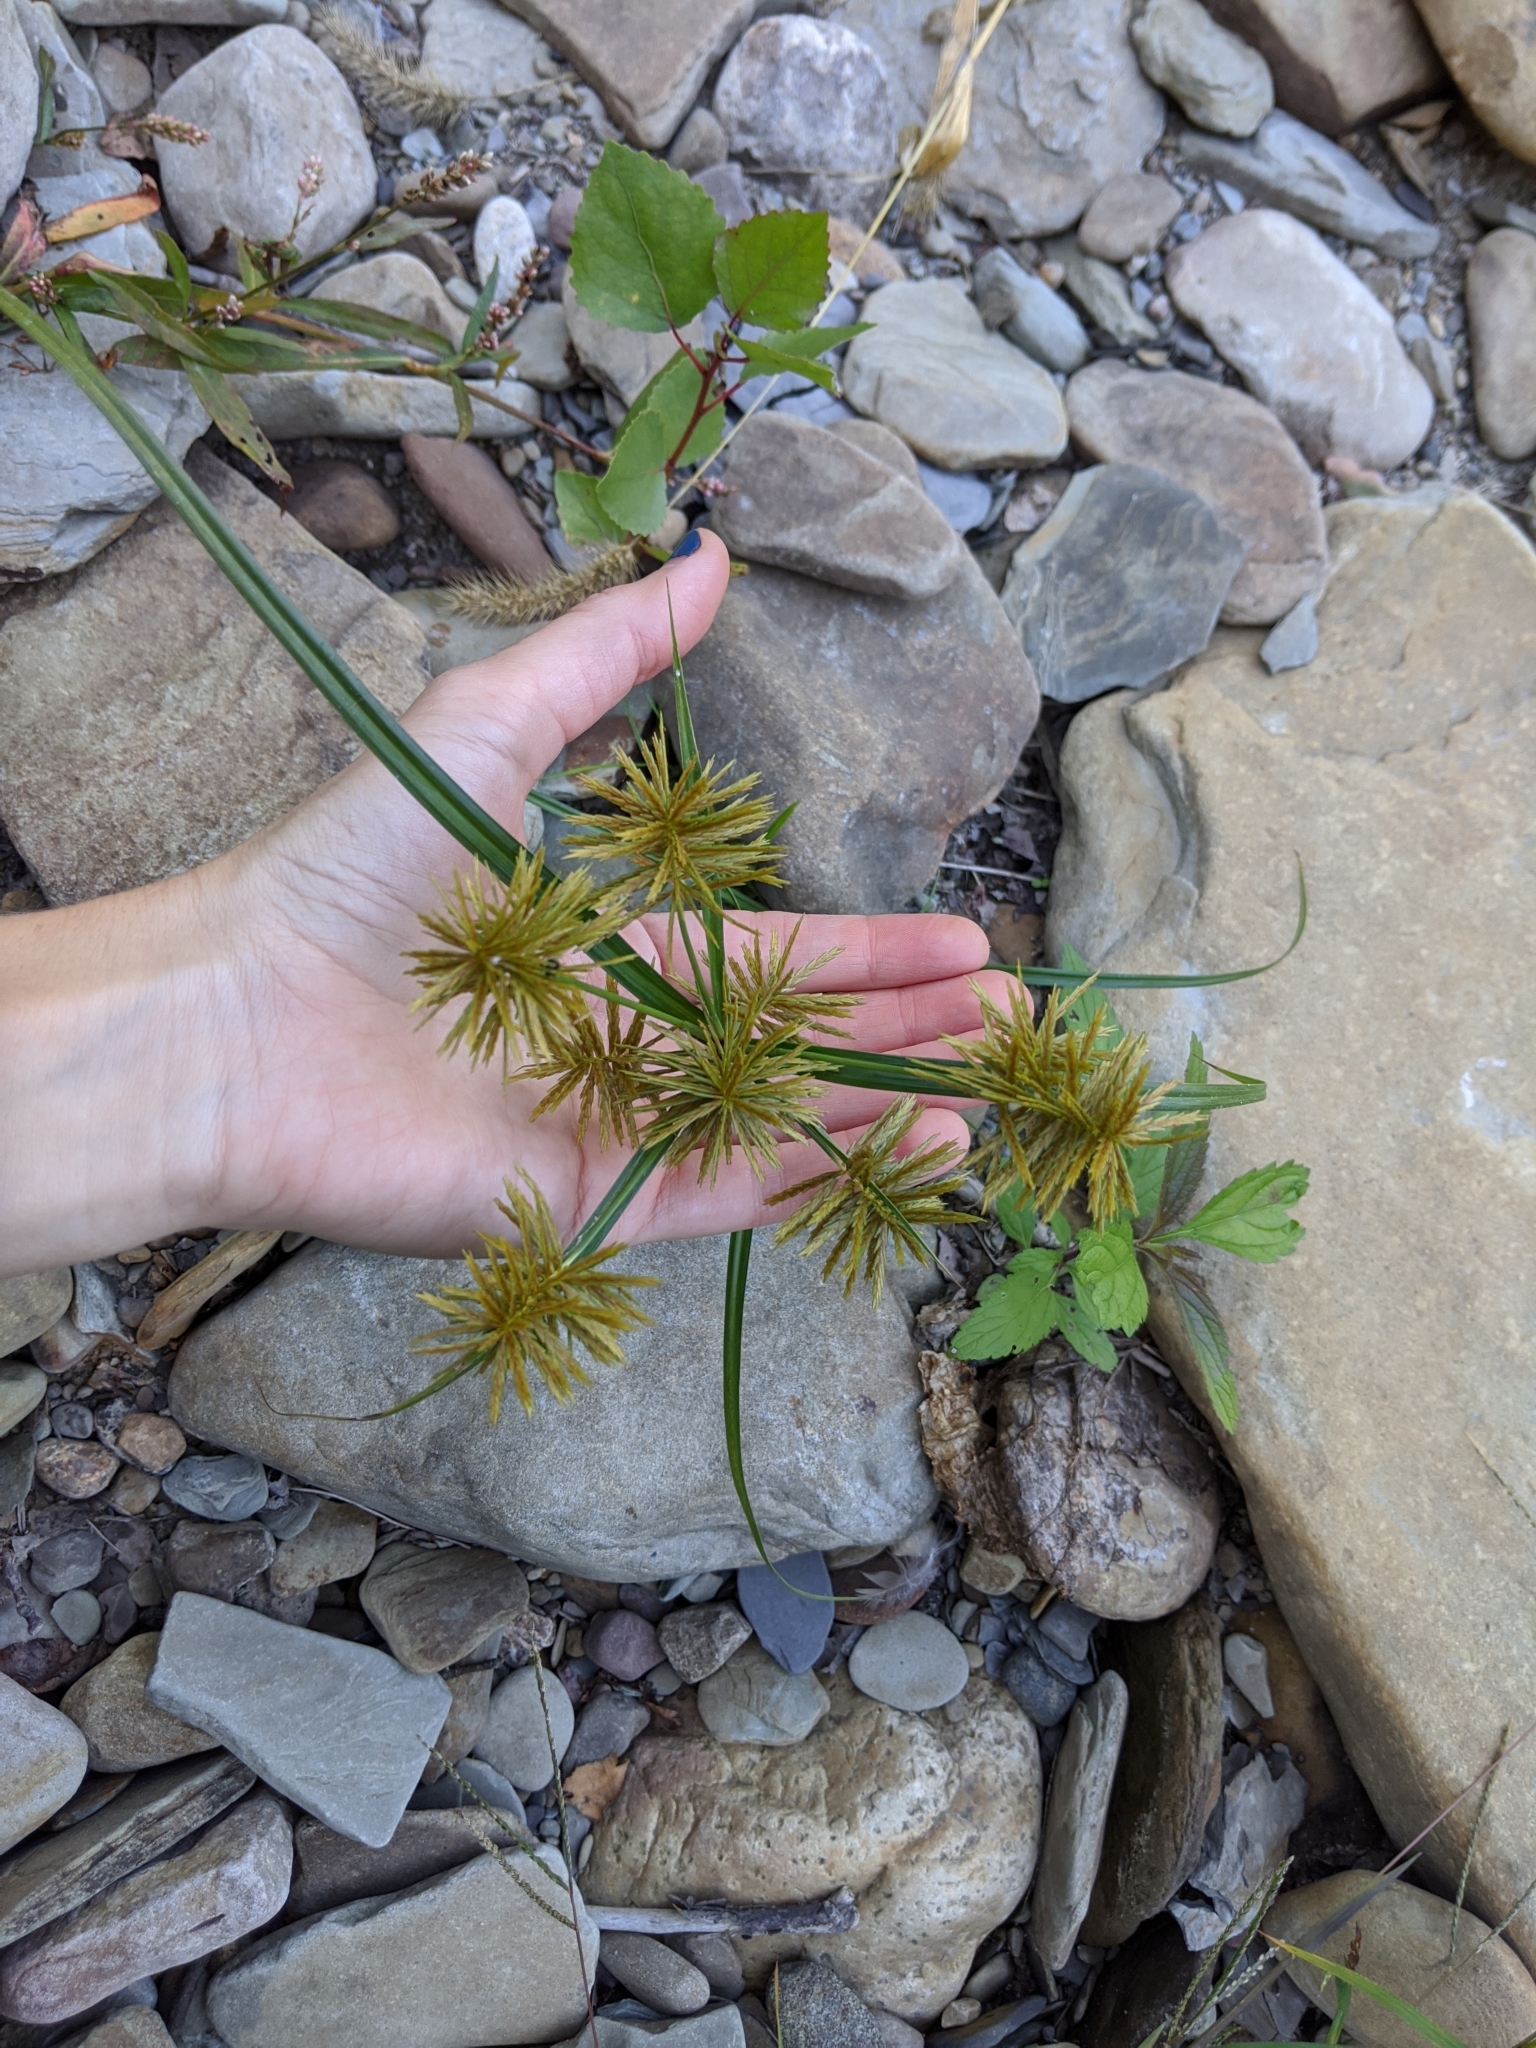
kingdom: Plantae
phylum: Tracheophyta
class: Liliopsida
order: Poales
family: Cyperaceae
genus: Cyperus
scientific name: Cyperus strigosus
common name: False nutsedge
